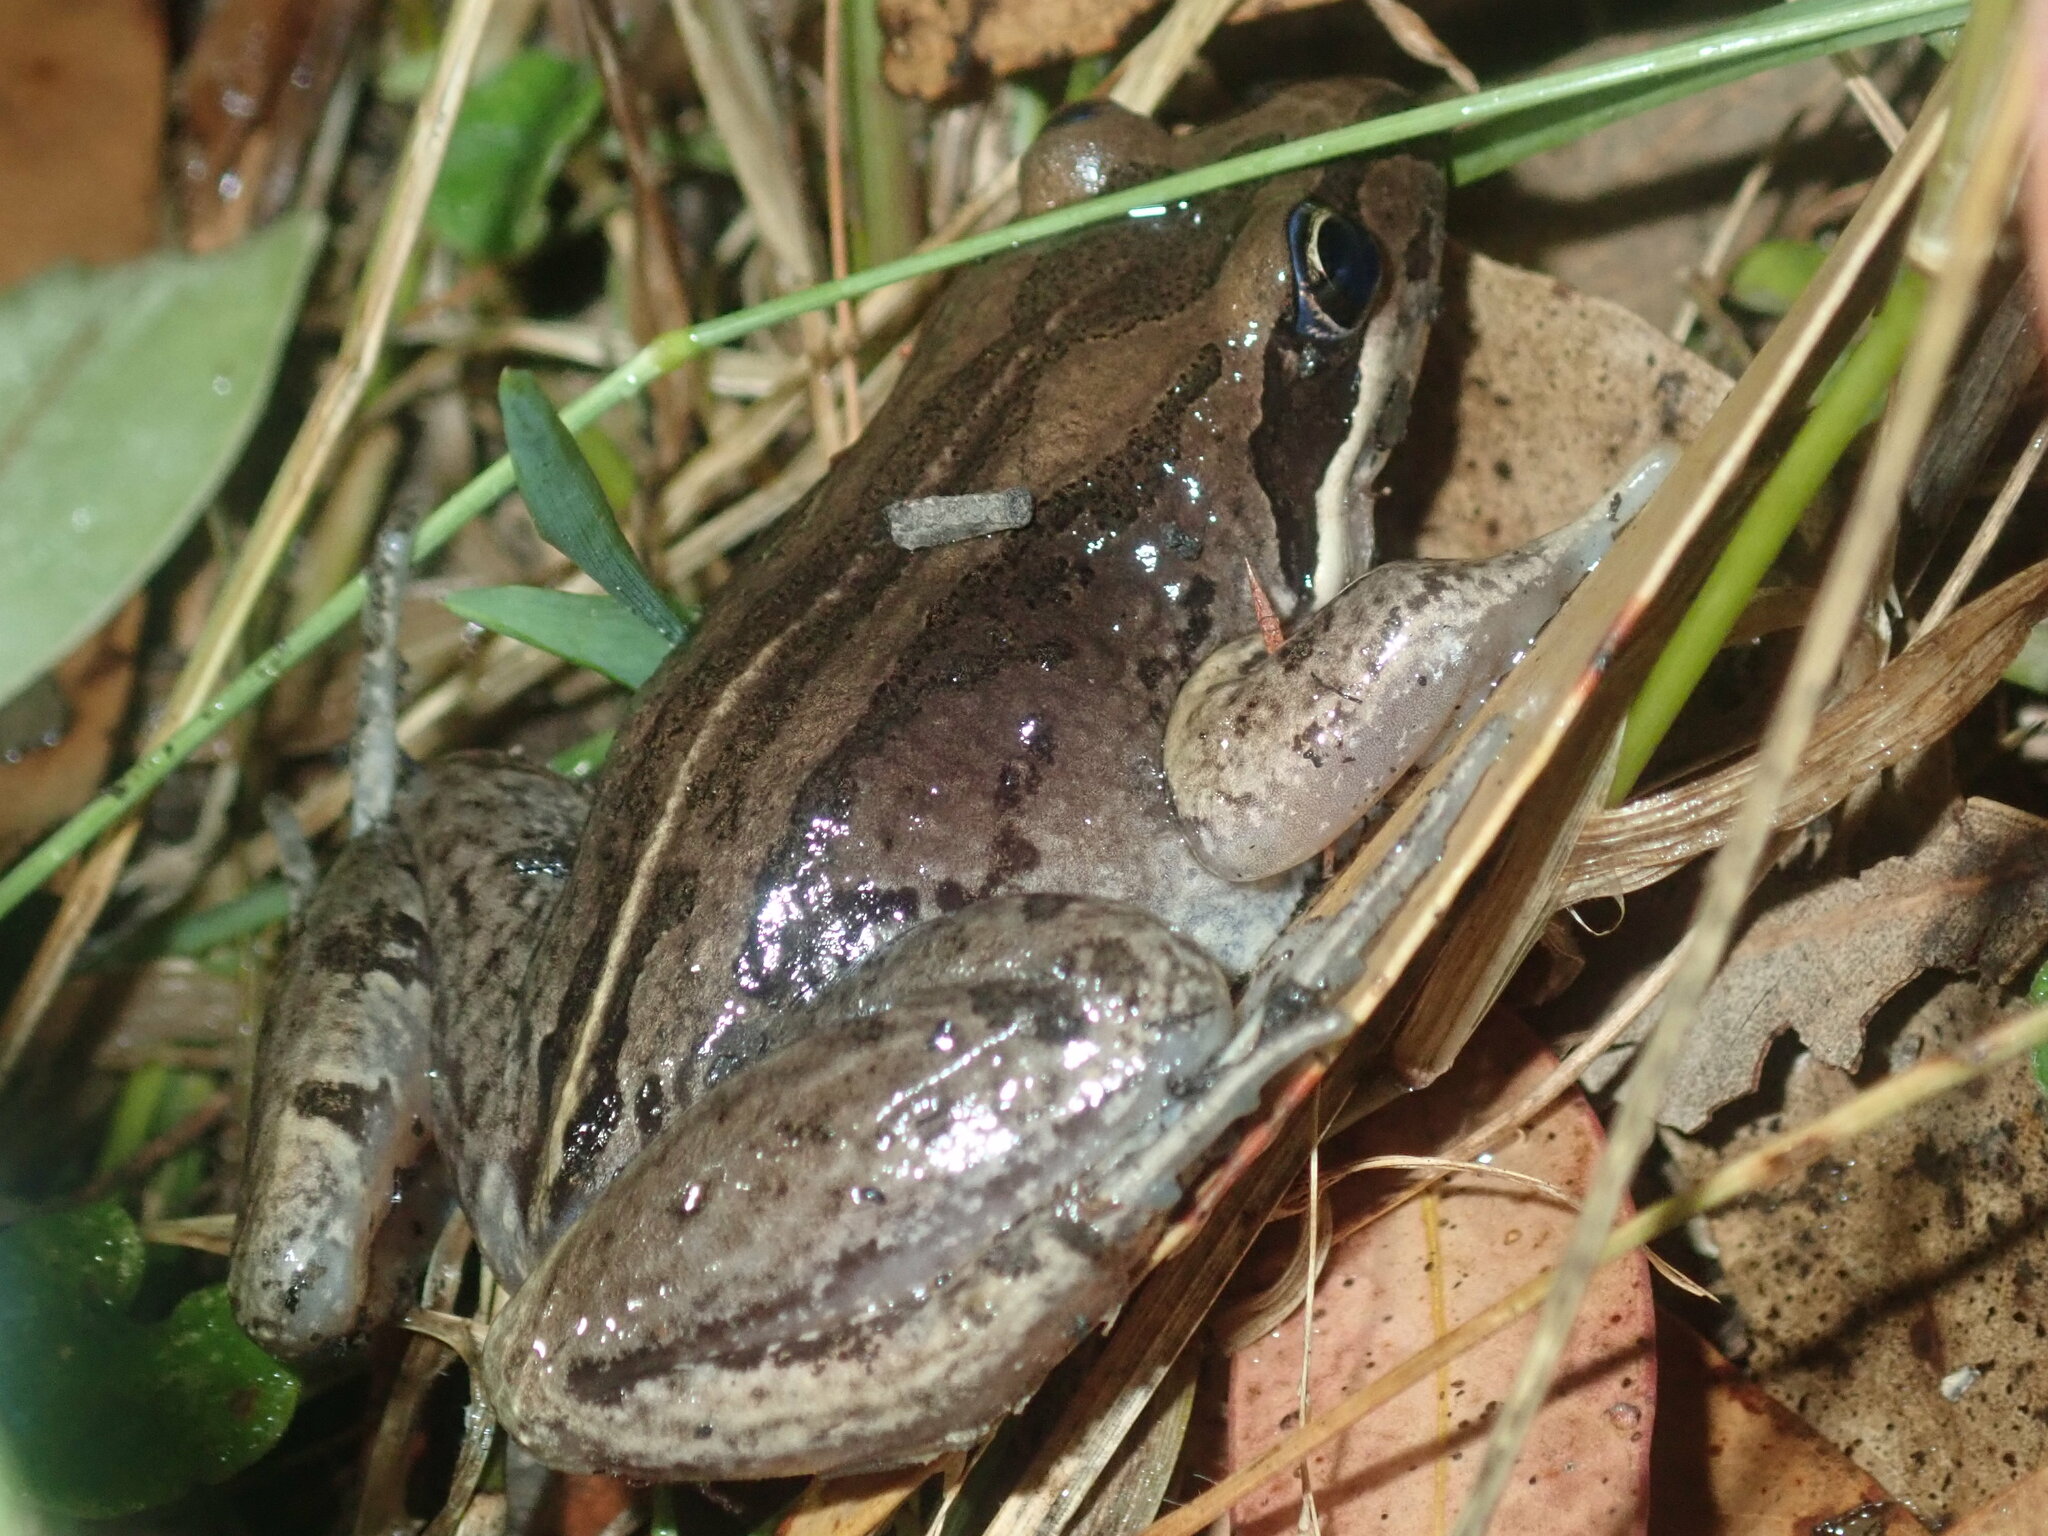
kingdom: Animalia
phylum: Chordata
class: Amphibia
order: Anura
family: Limnodynastidae
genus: Limnodynastes
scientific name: Limnodynastes peronii
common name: Brown frog
